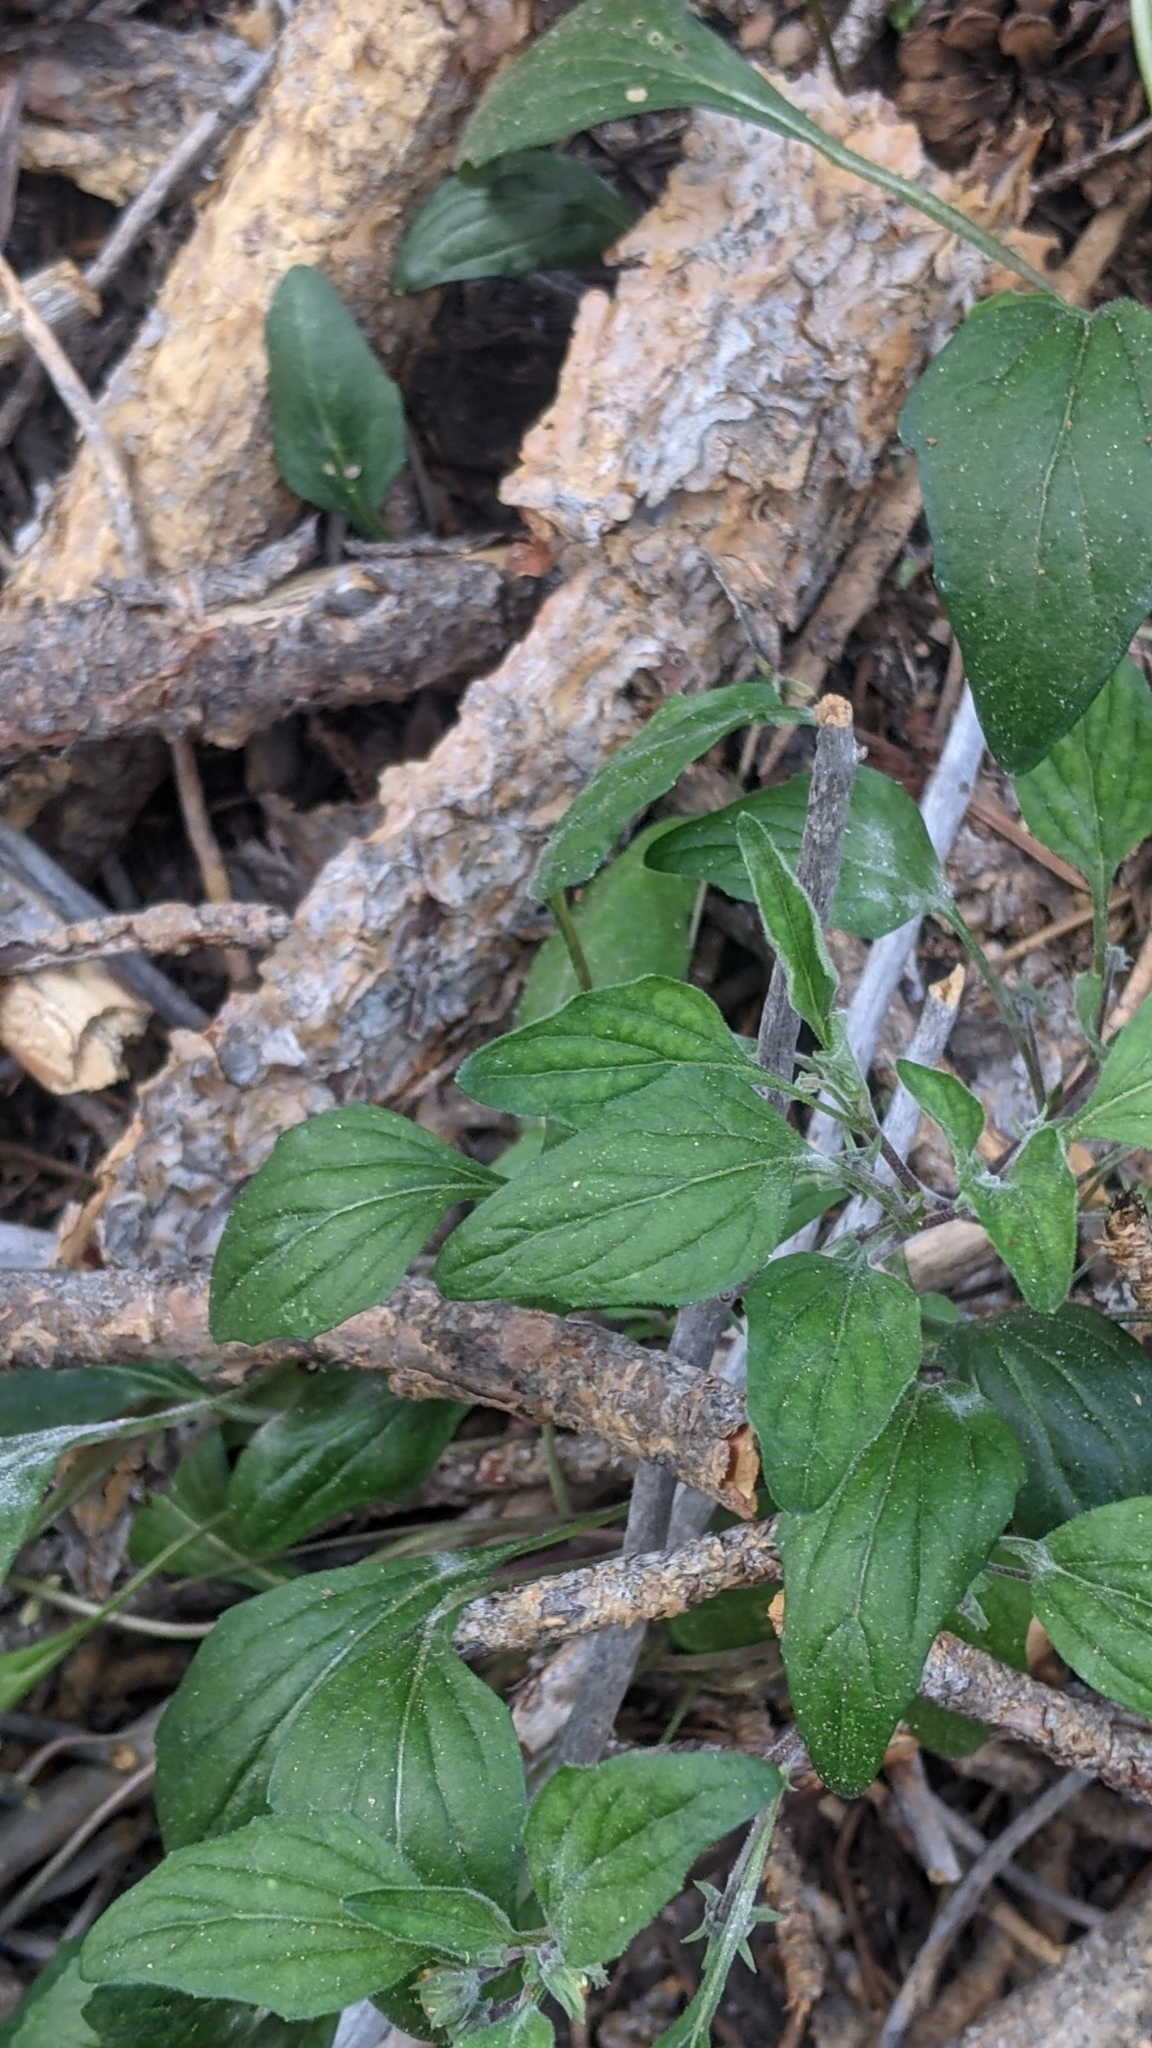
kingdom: Plantae
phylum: Tracheophyta
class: Magnoliopsida
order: Malpighiales
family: Violaceae
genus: Viola
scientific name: Viola purpurea
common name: Pine violet
